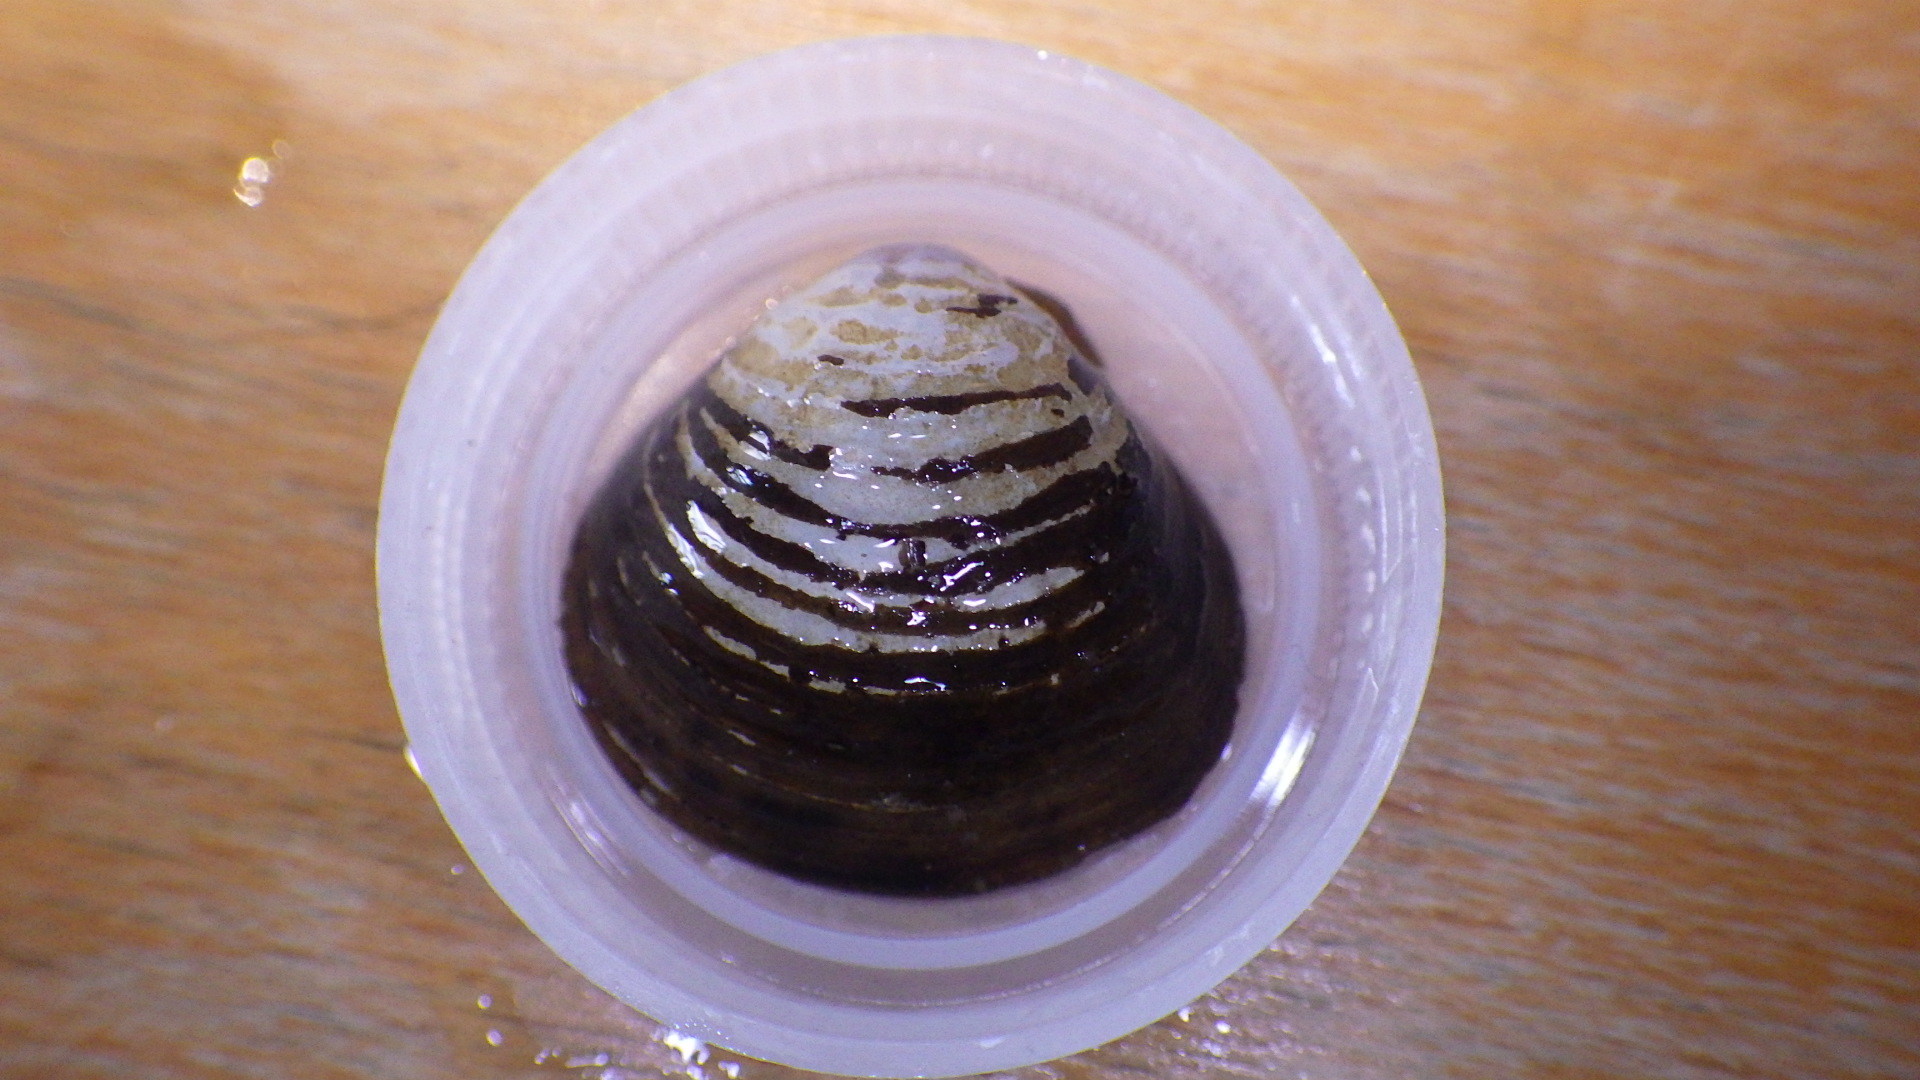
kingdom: Animalia
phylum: Mollusca
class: Bivalvia
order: Venerida
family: Cyrenidae
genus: Corbicula
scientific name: Corbicula fluminea
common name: Asian clam
